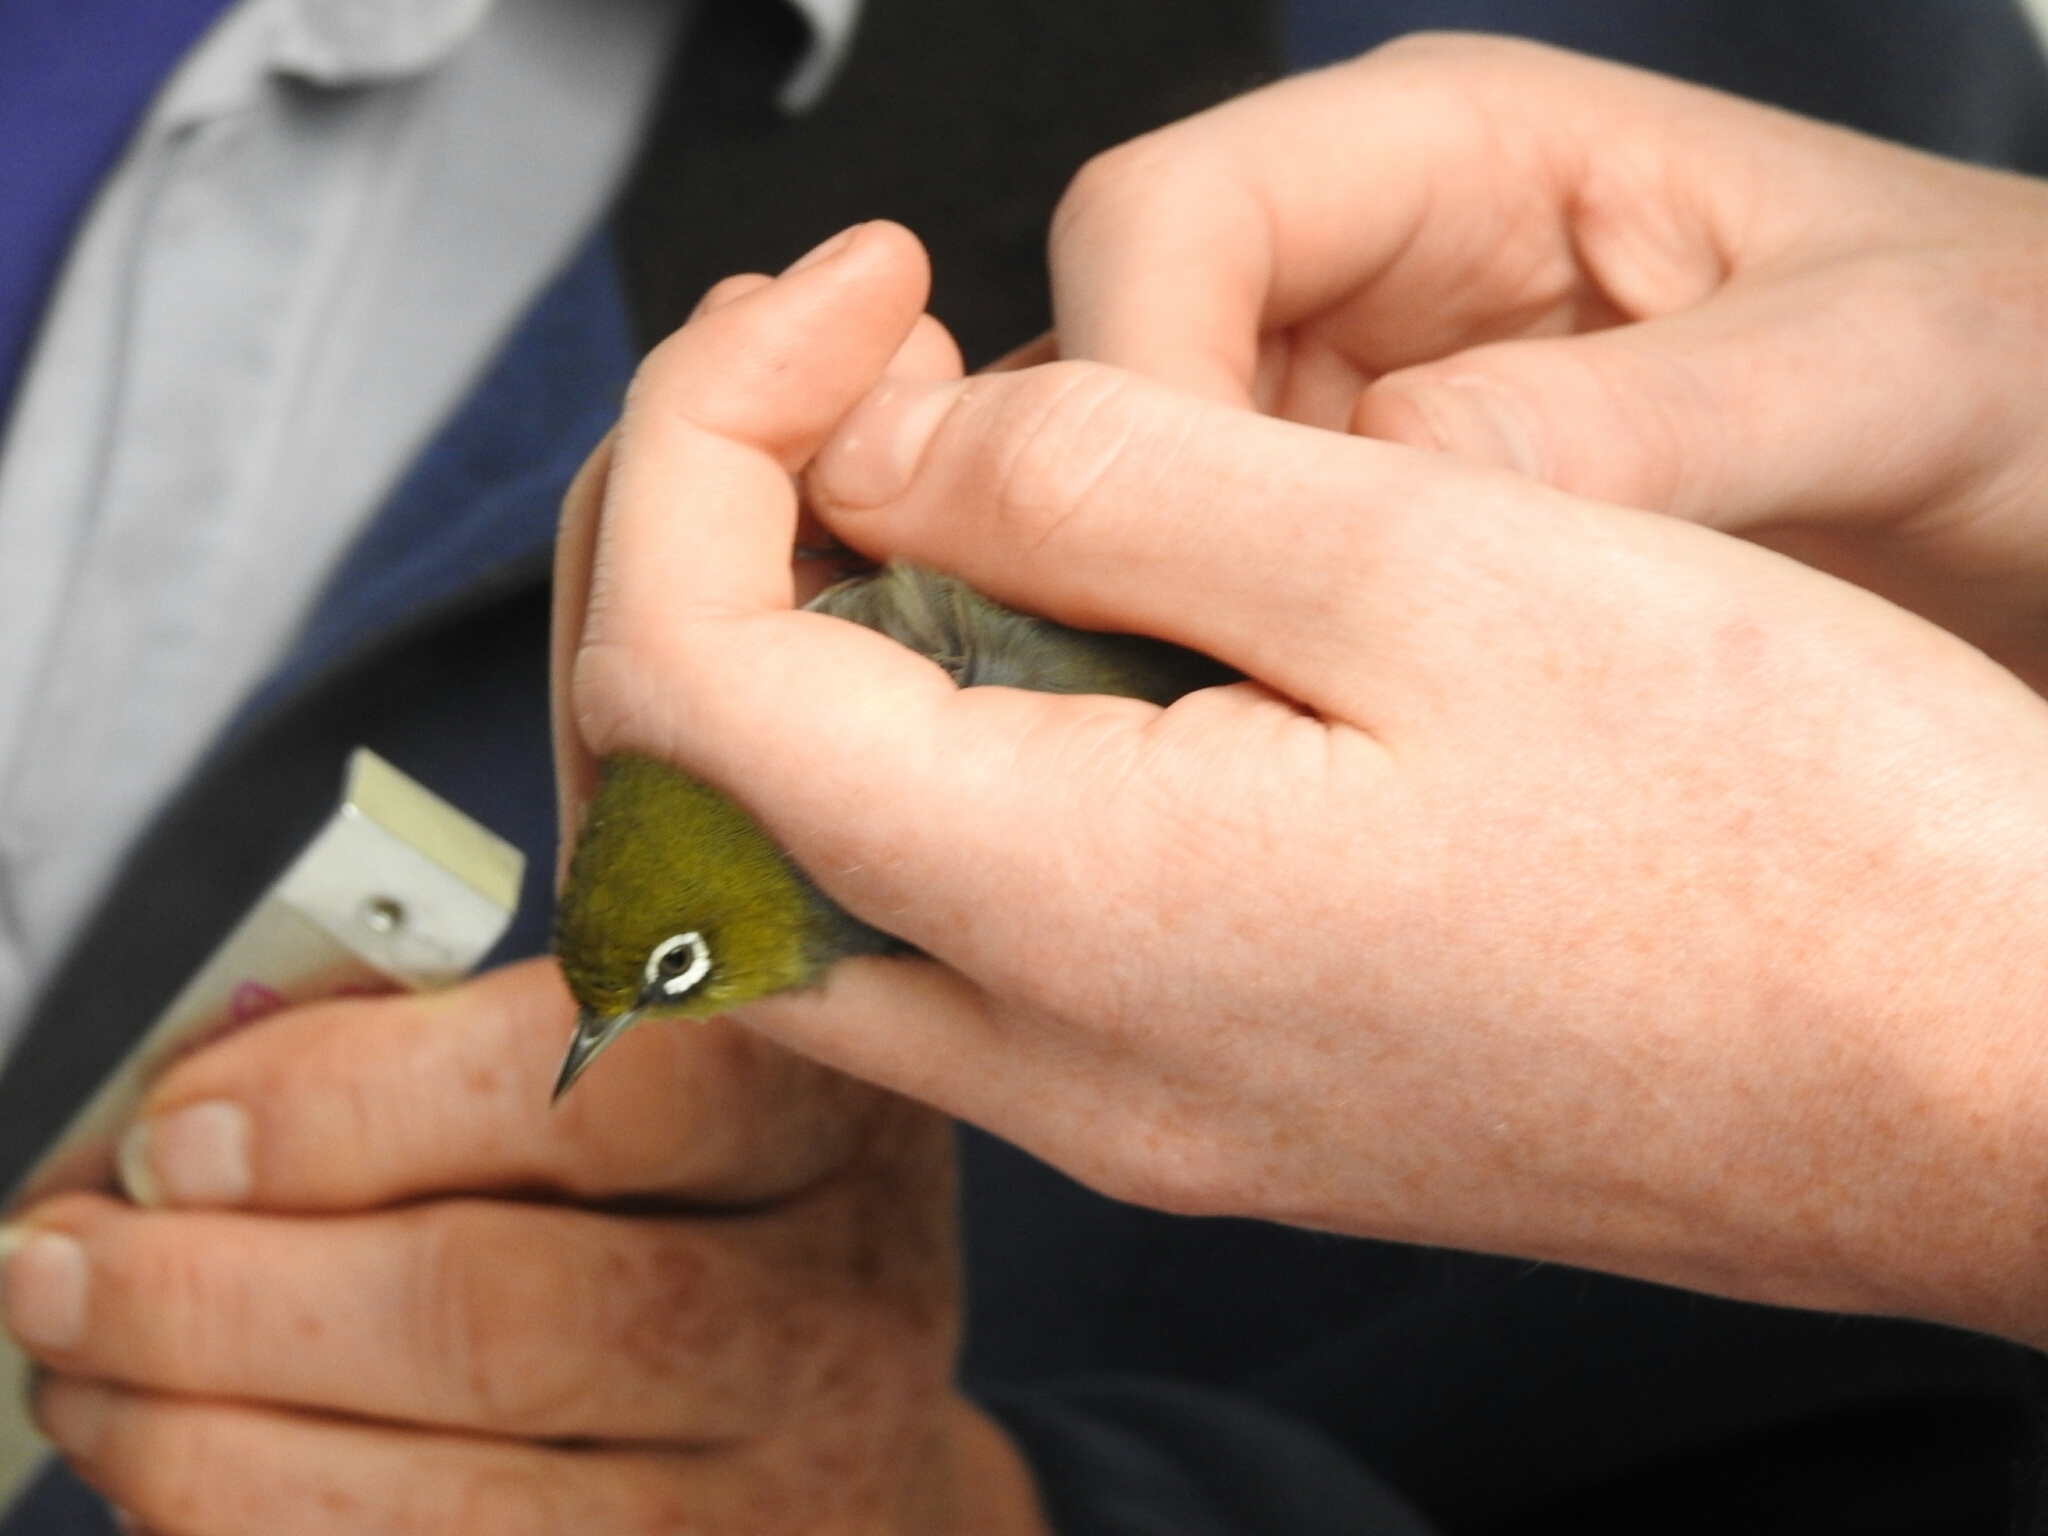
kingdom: Animalia
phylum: Chordata
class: Aves
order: Passeriformes
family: Zosteropidae
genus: Zosterops
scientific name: Zosterops lateralis
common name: Silvereye
